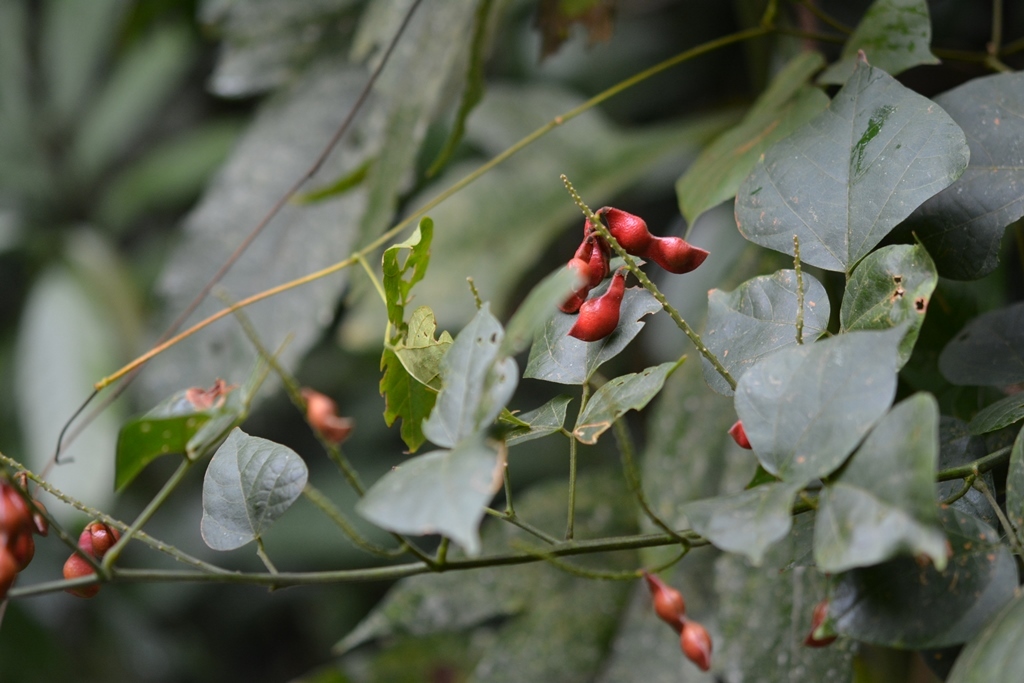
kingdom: Plantae
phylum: Tracheophyta
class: Magnoliopsida
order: Fabales
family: Fabaceae
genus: Rhynchosia
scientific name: Rhynchosia amabilis
